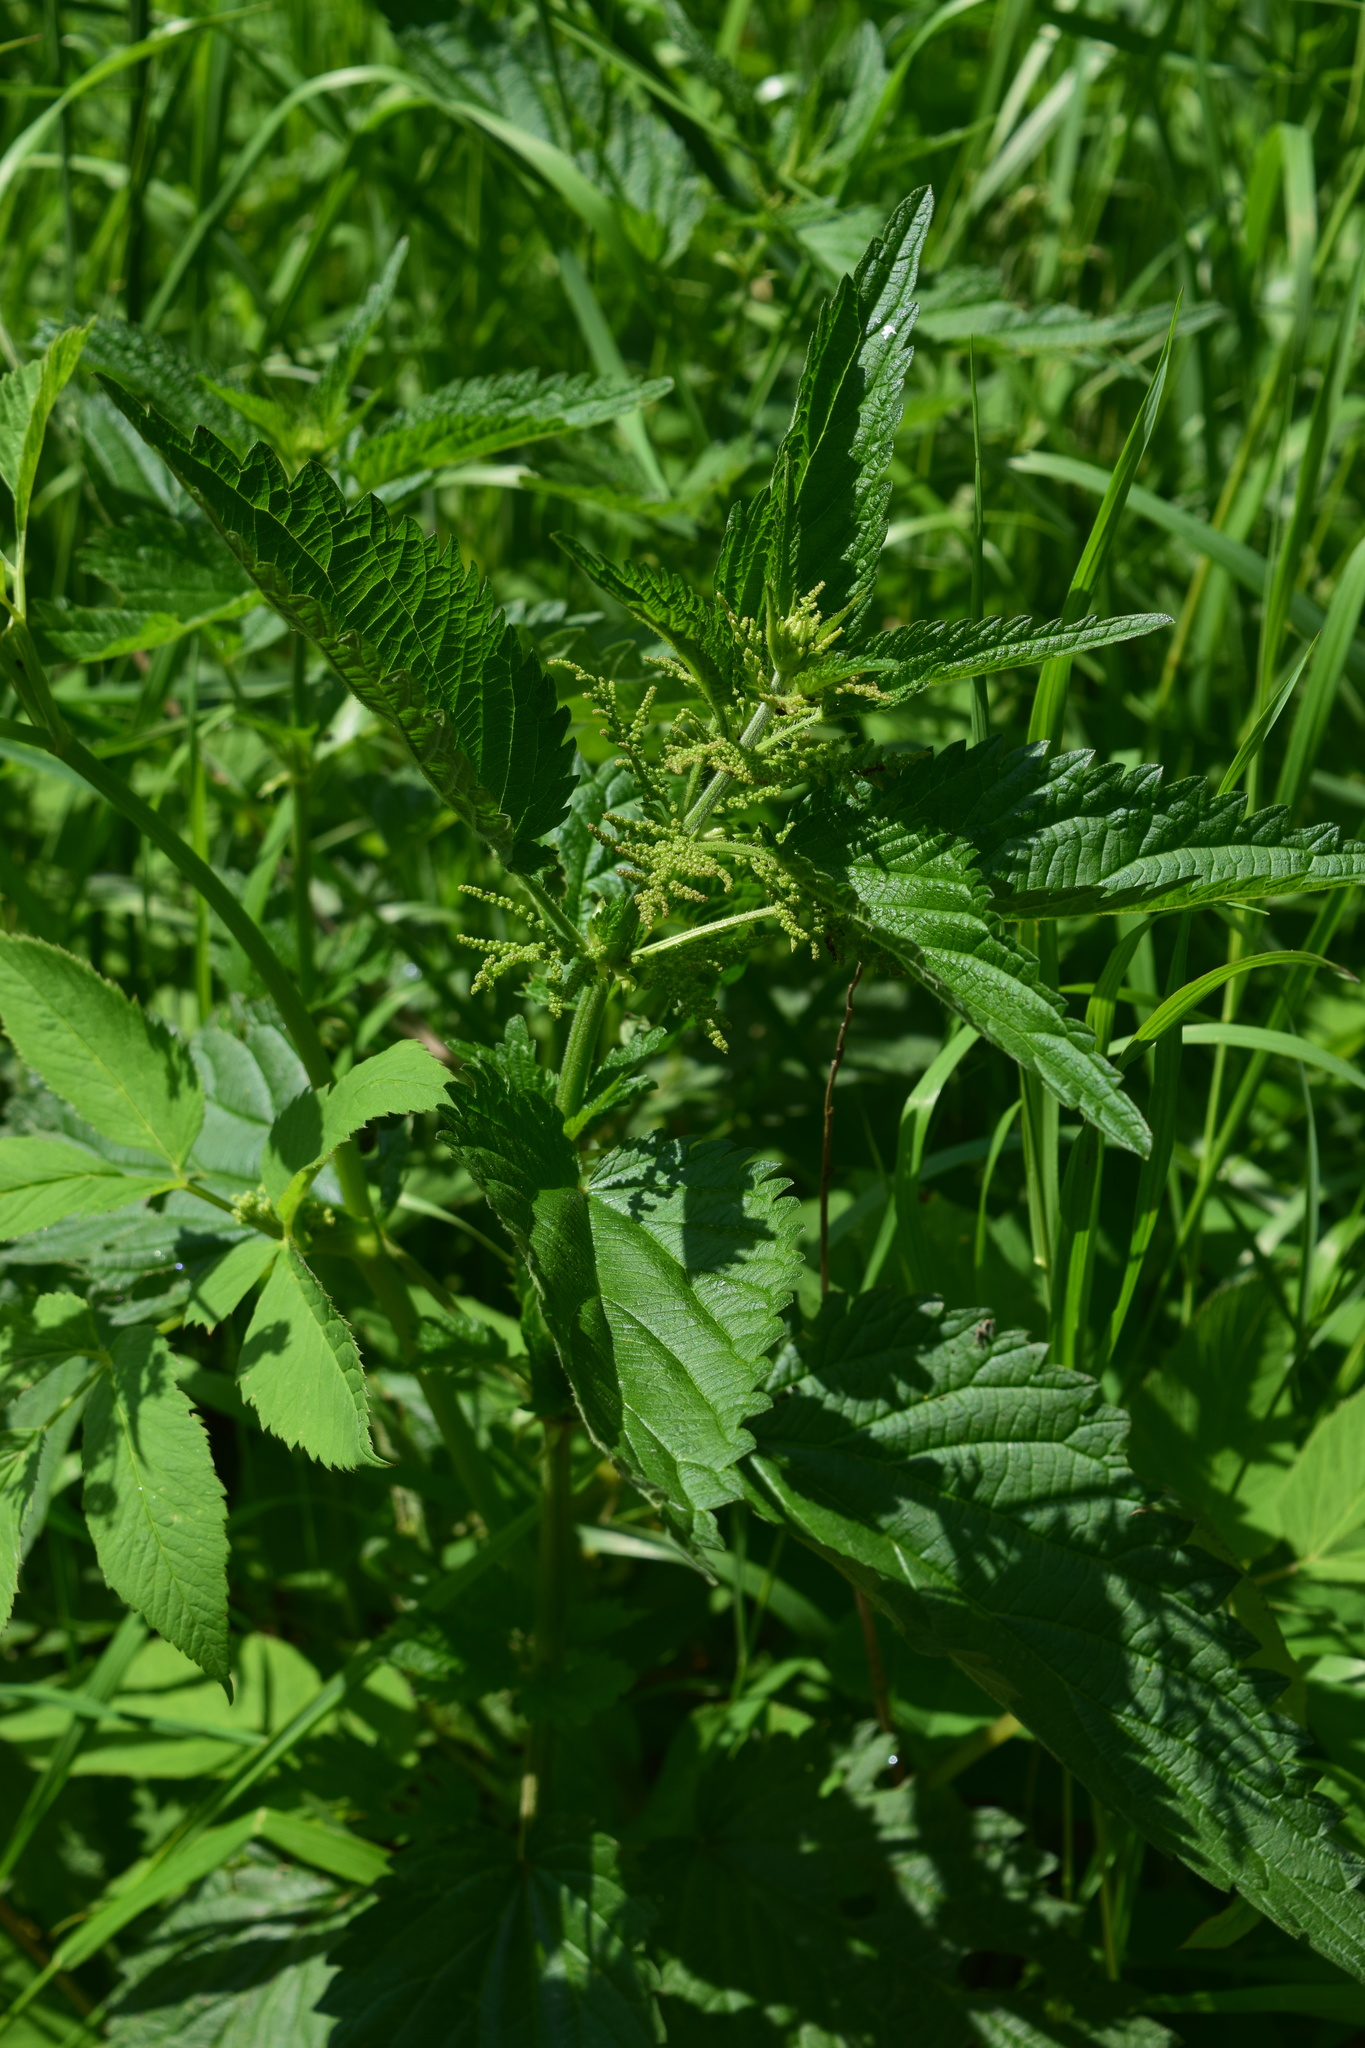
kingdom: Plantae
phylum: Tracheophyta
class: Magnoliopsida
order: Rosales
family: Urticaceae
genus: Urtica
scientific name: Urtica dioica
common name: Common nettle
